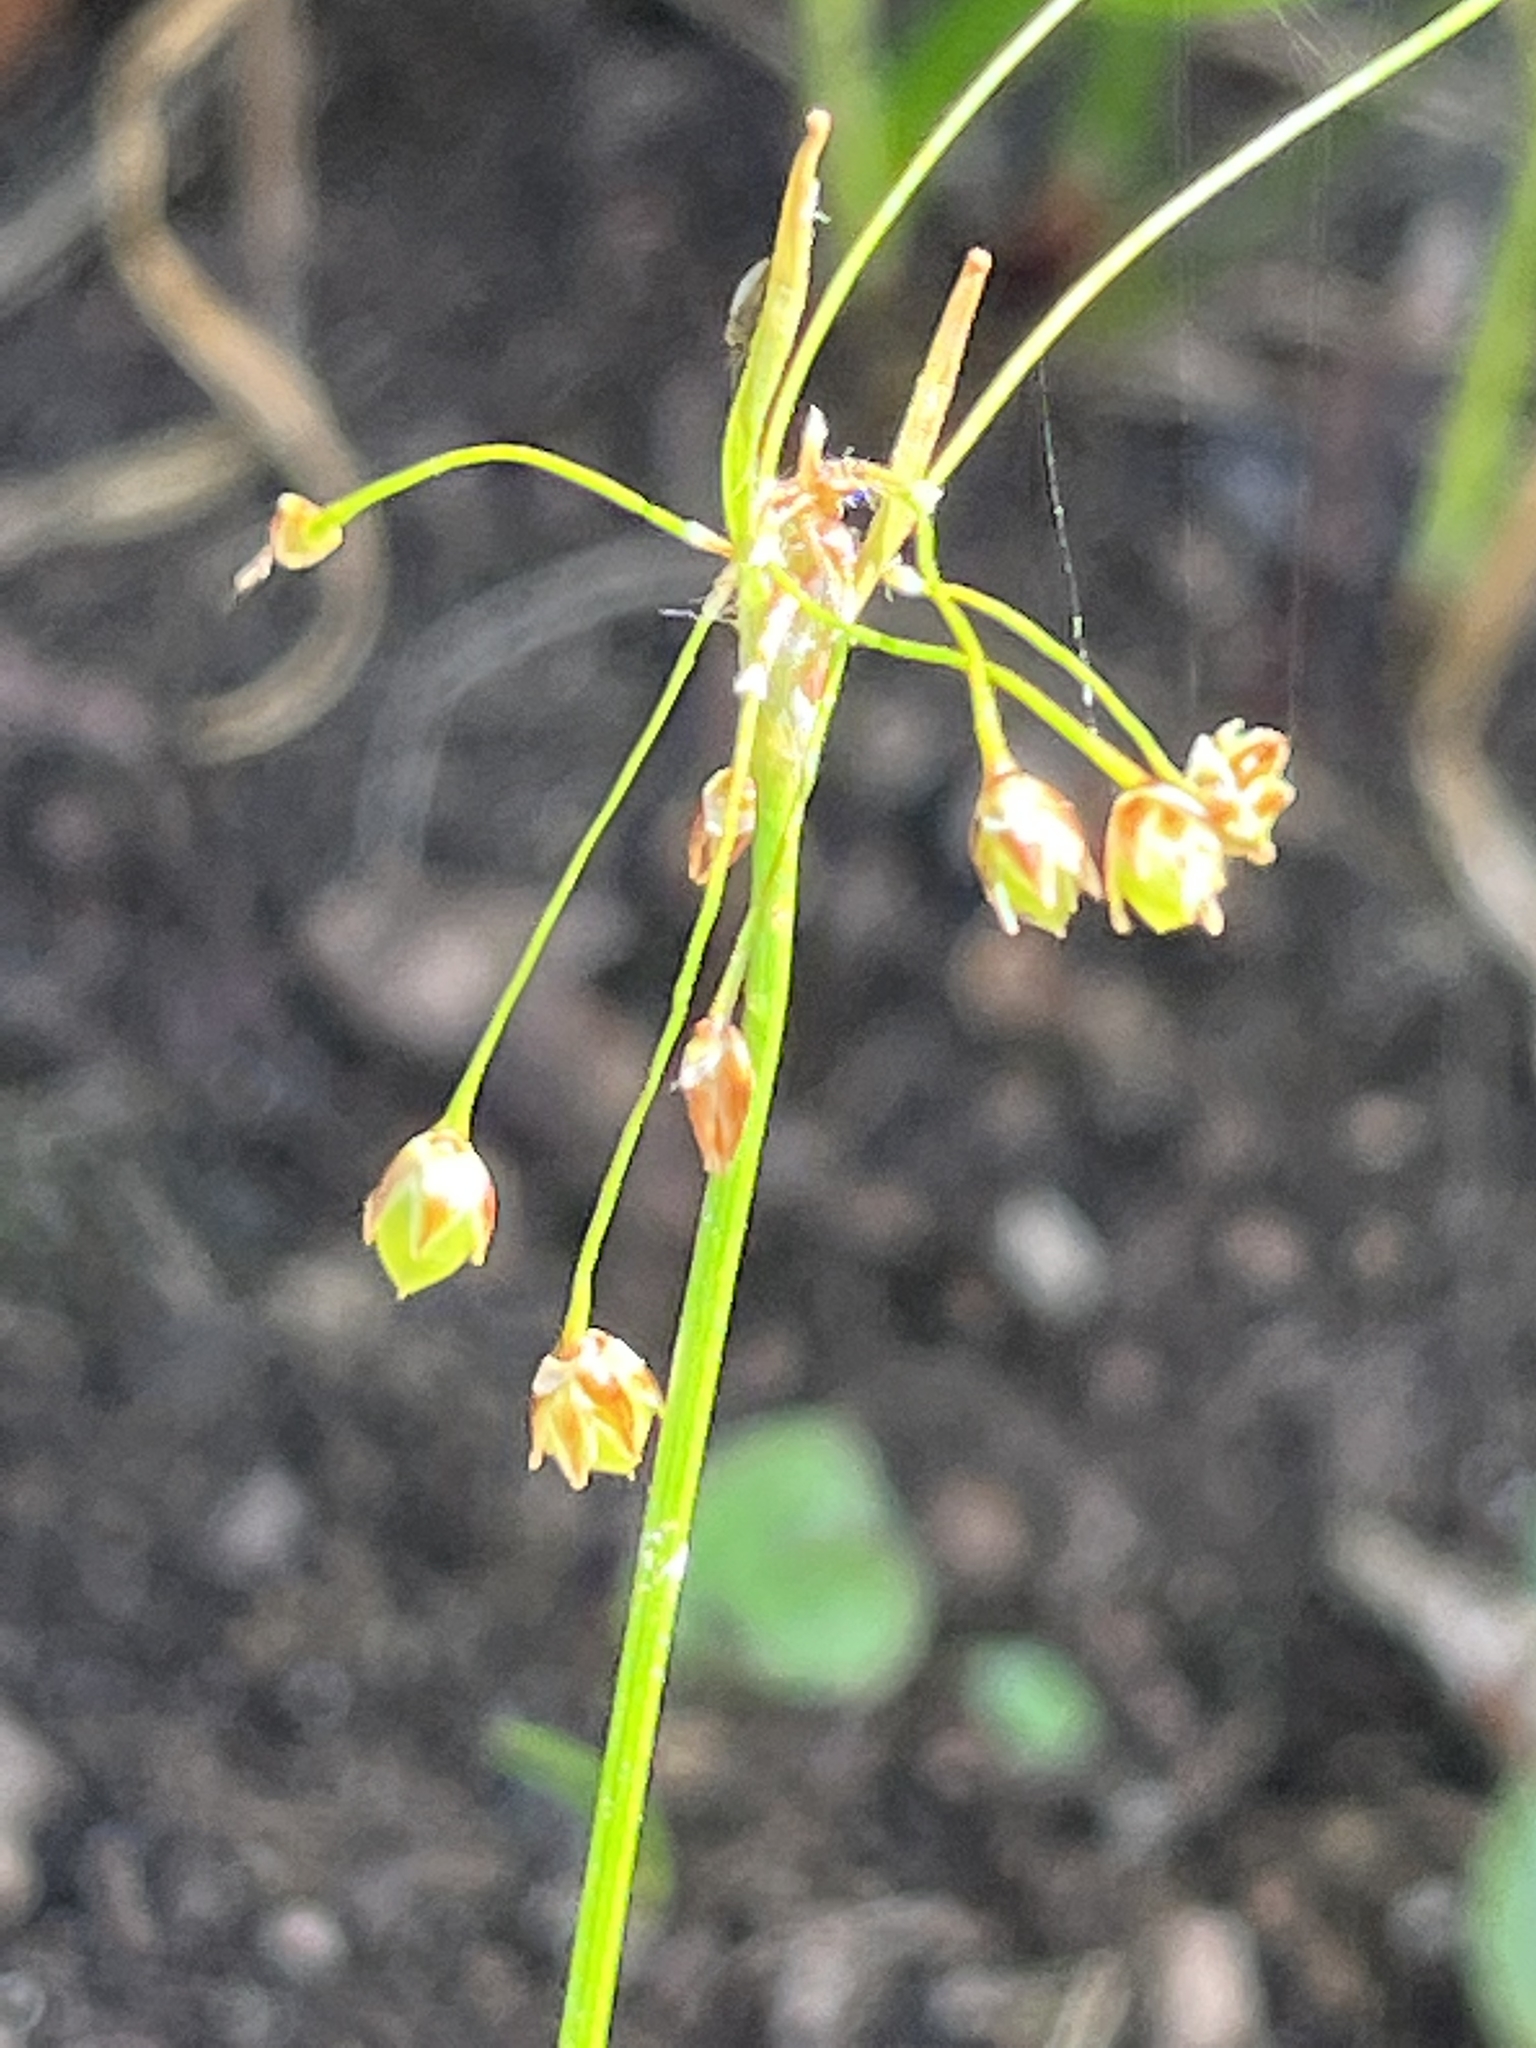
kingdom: Plantae
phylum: Tracheophyta
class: Liliopsida
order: Poales
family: Juncaceae
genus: Luzula
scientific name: Luzula acuminata
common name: Hairy woodrush
